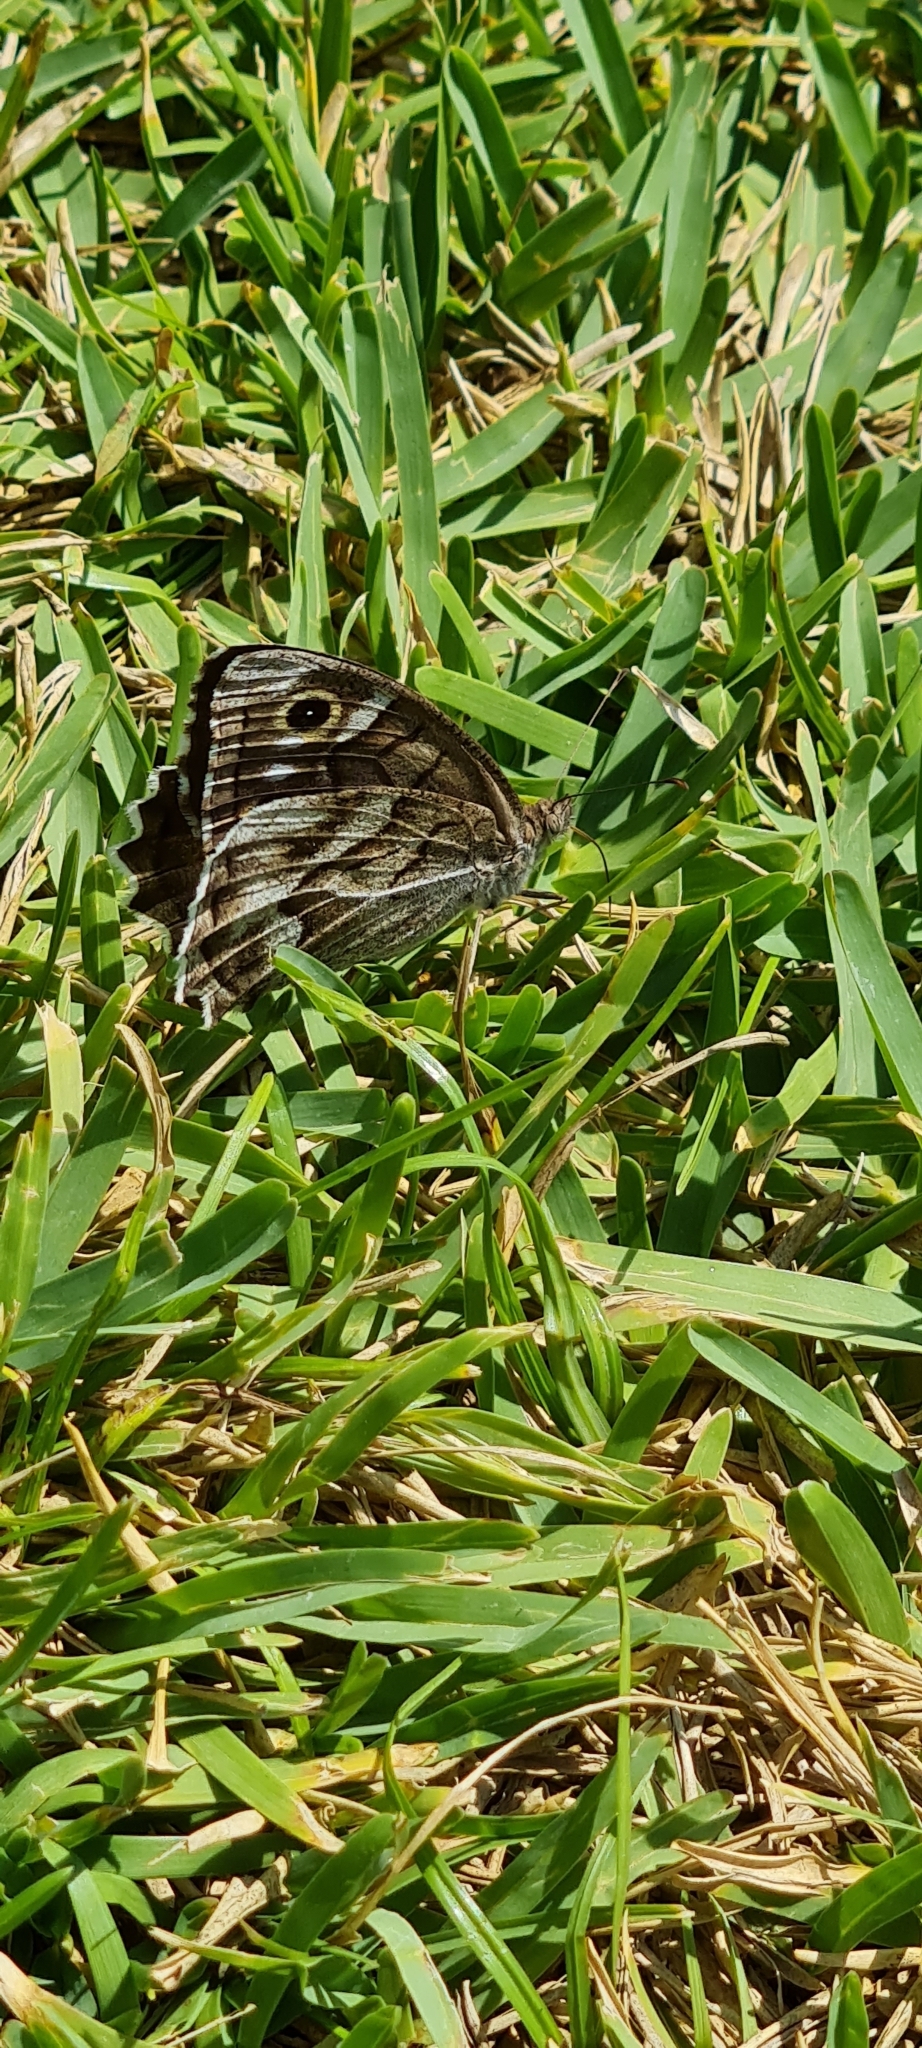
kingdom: Animalia
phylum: Arthropoda
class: Insecta
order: Lepidoptera
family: Nymphalidae
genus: Hipparchia
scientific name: Hipparchia fidia
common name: Striped grayling
